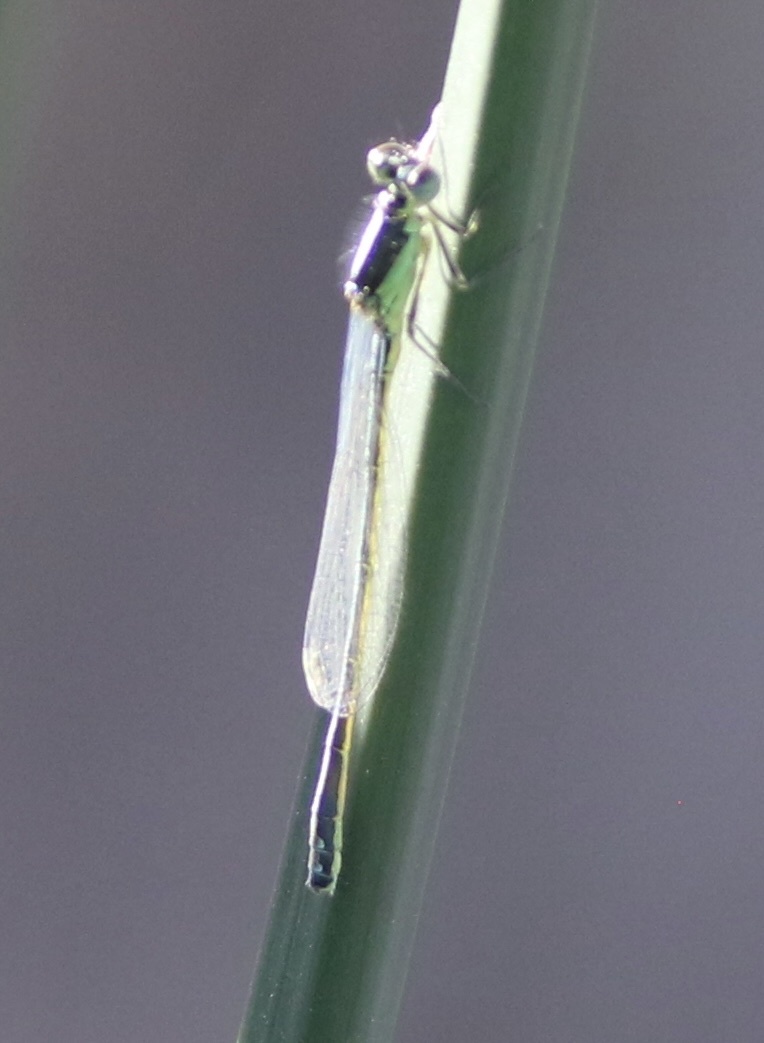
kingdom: Animalia
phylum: Arthropoda
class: Insecta
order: Odonata
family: Coenagrionidae
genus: Ischnura
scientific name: Ischnura denticollis
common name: Black-fronted forktail
